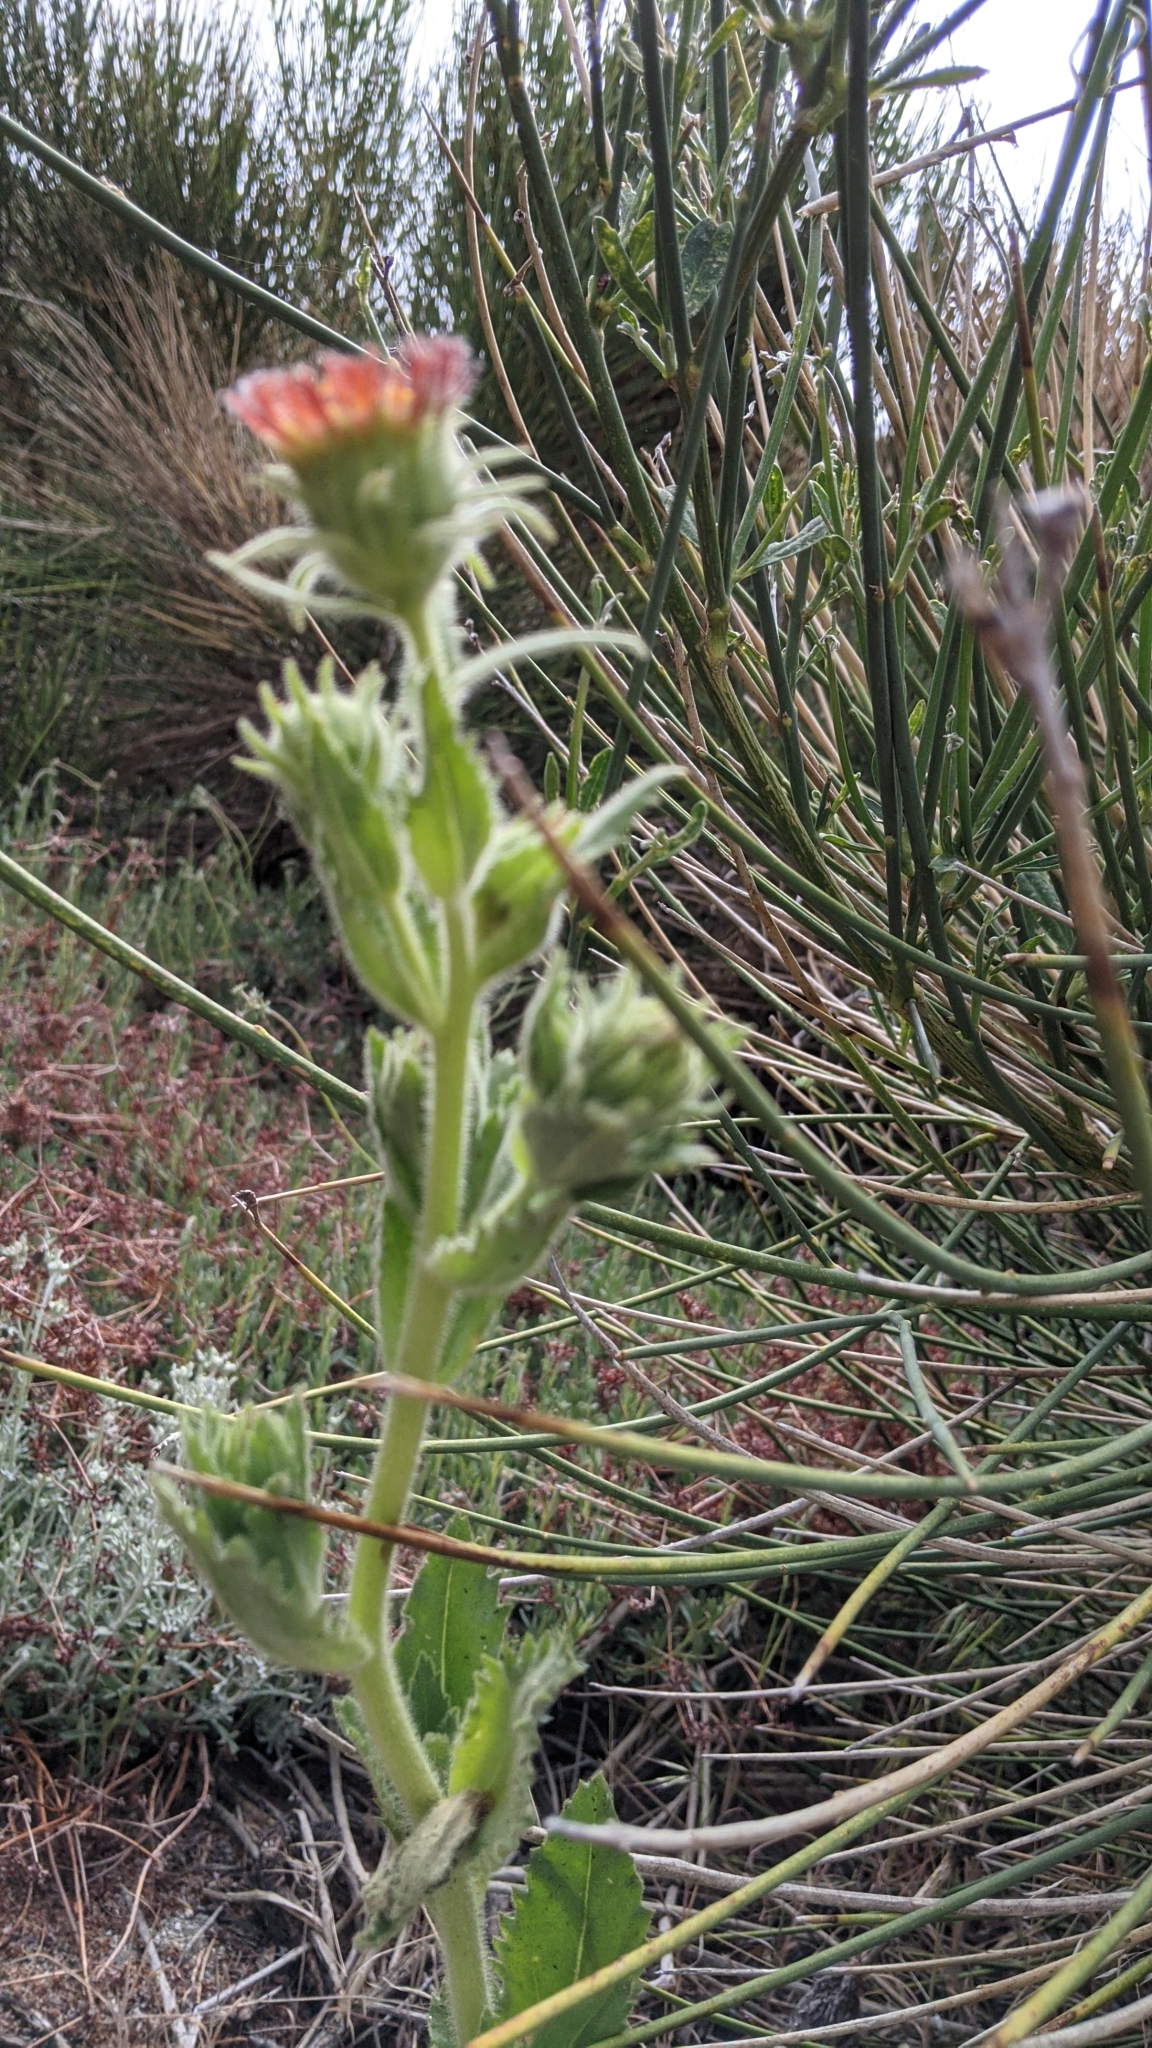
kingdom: Plantae
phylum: Tracheophyta
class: Magnoliopsida
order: Asterales
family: Asteraceae
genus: Hulsea
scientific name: Hulsea heterochroma
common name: Redray alpinegold
